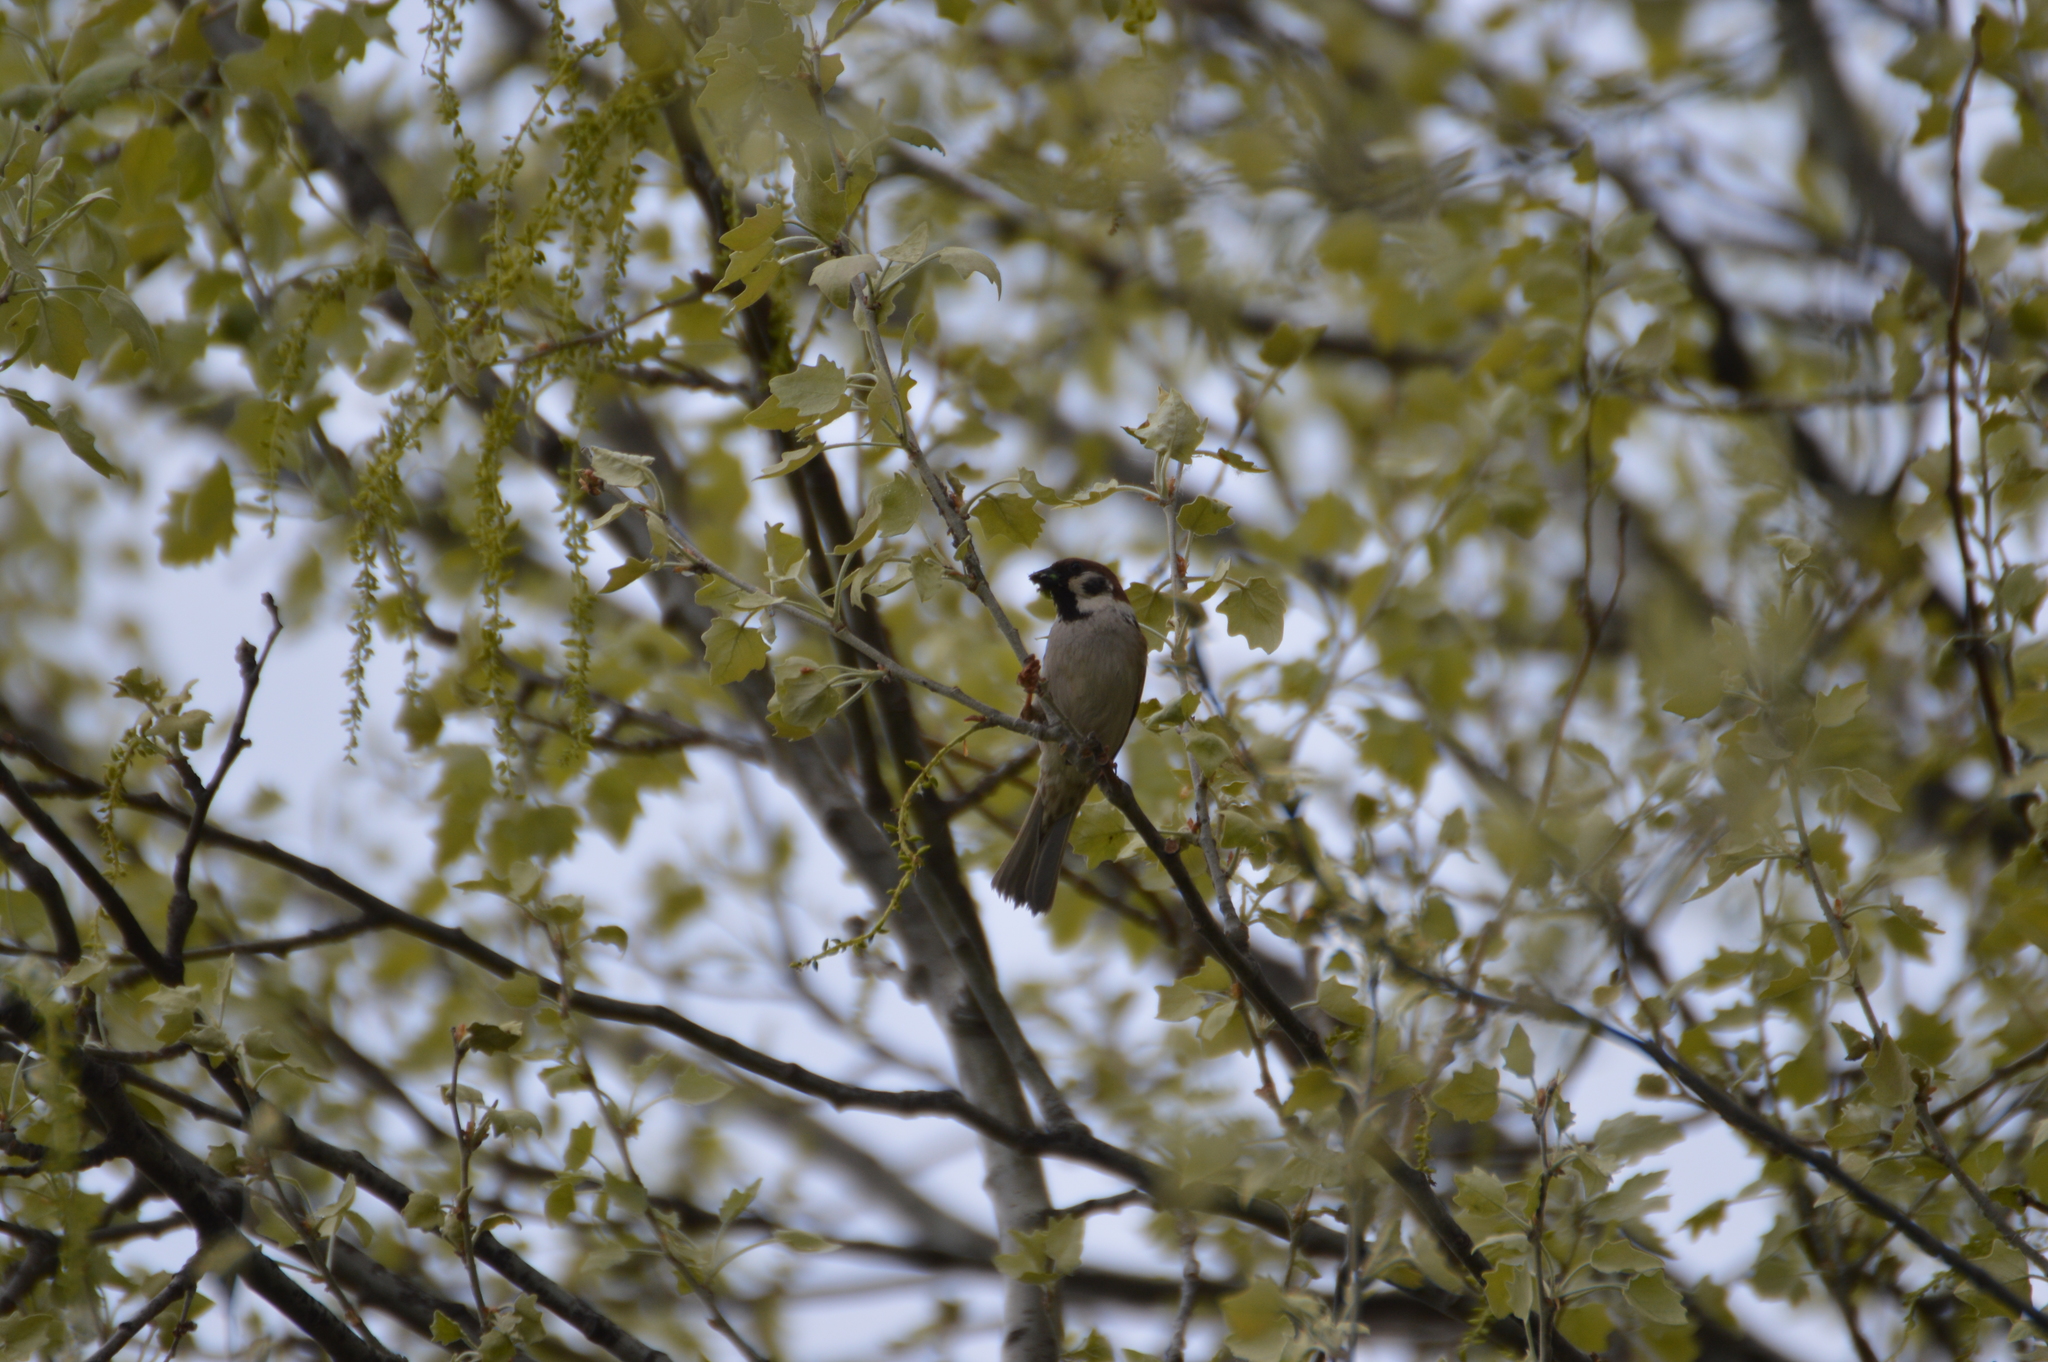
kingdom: Animalia
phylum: Chordata
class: Aves
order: Passeriformes
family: Passeridae
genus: Passer
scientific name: Passer montanus
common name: Eurasian tree sparrow
